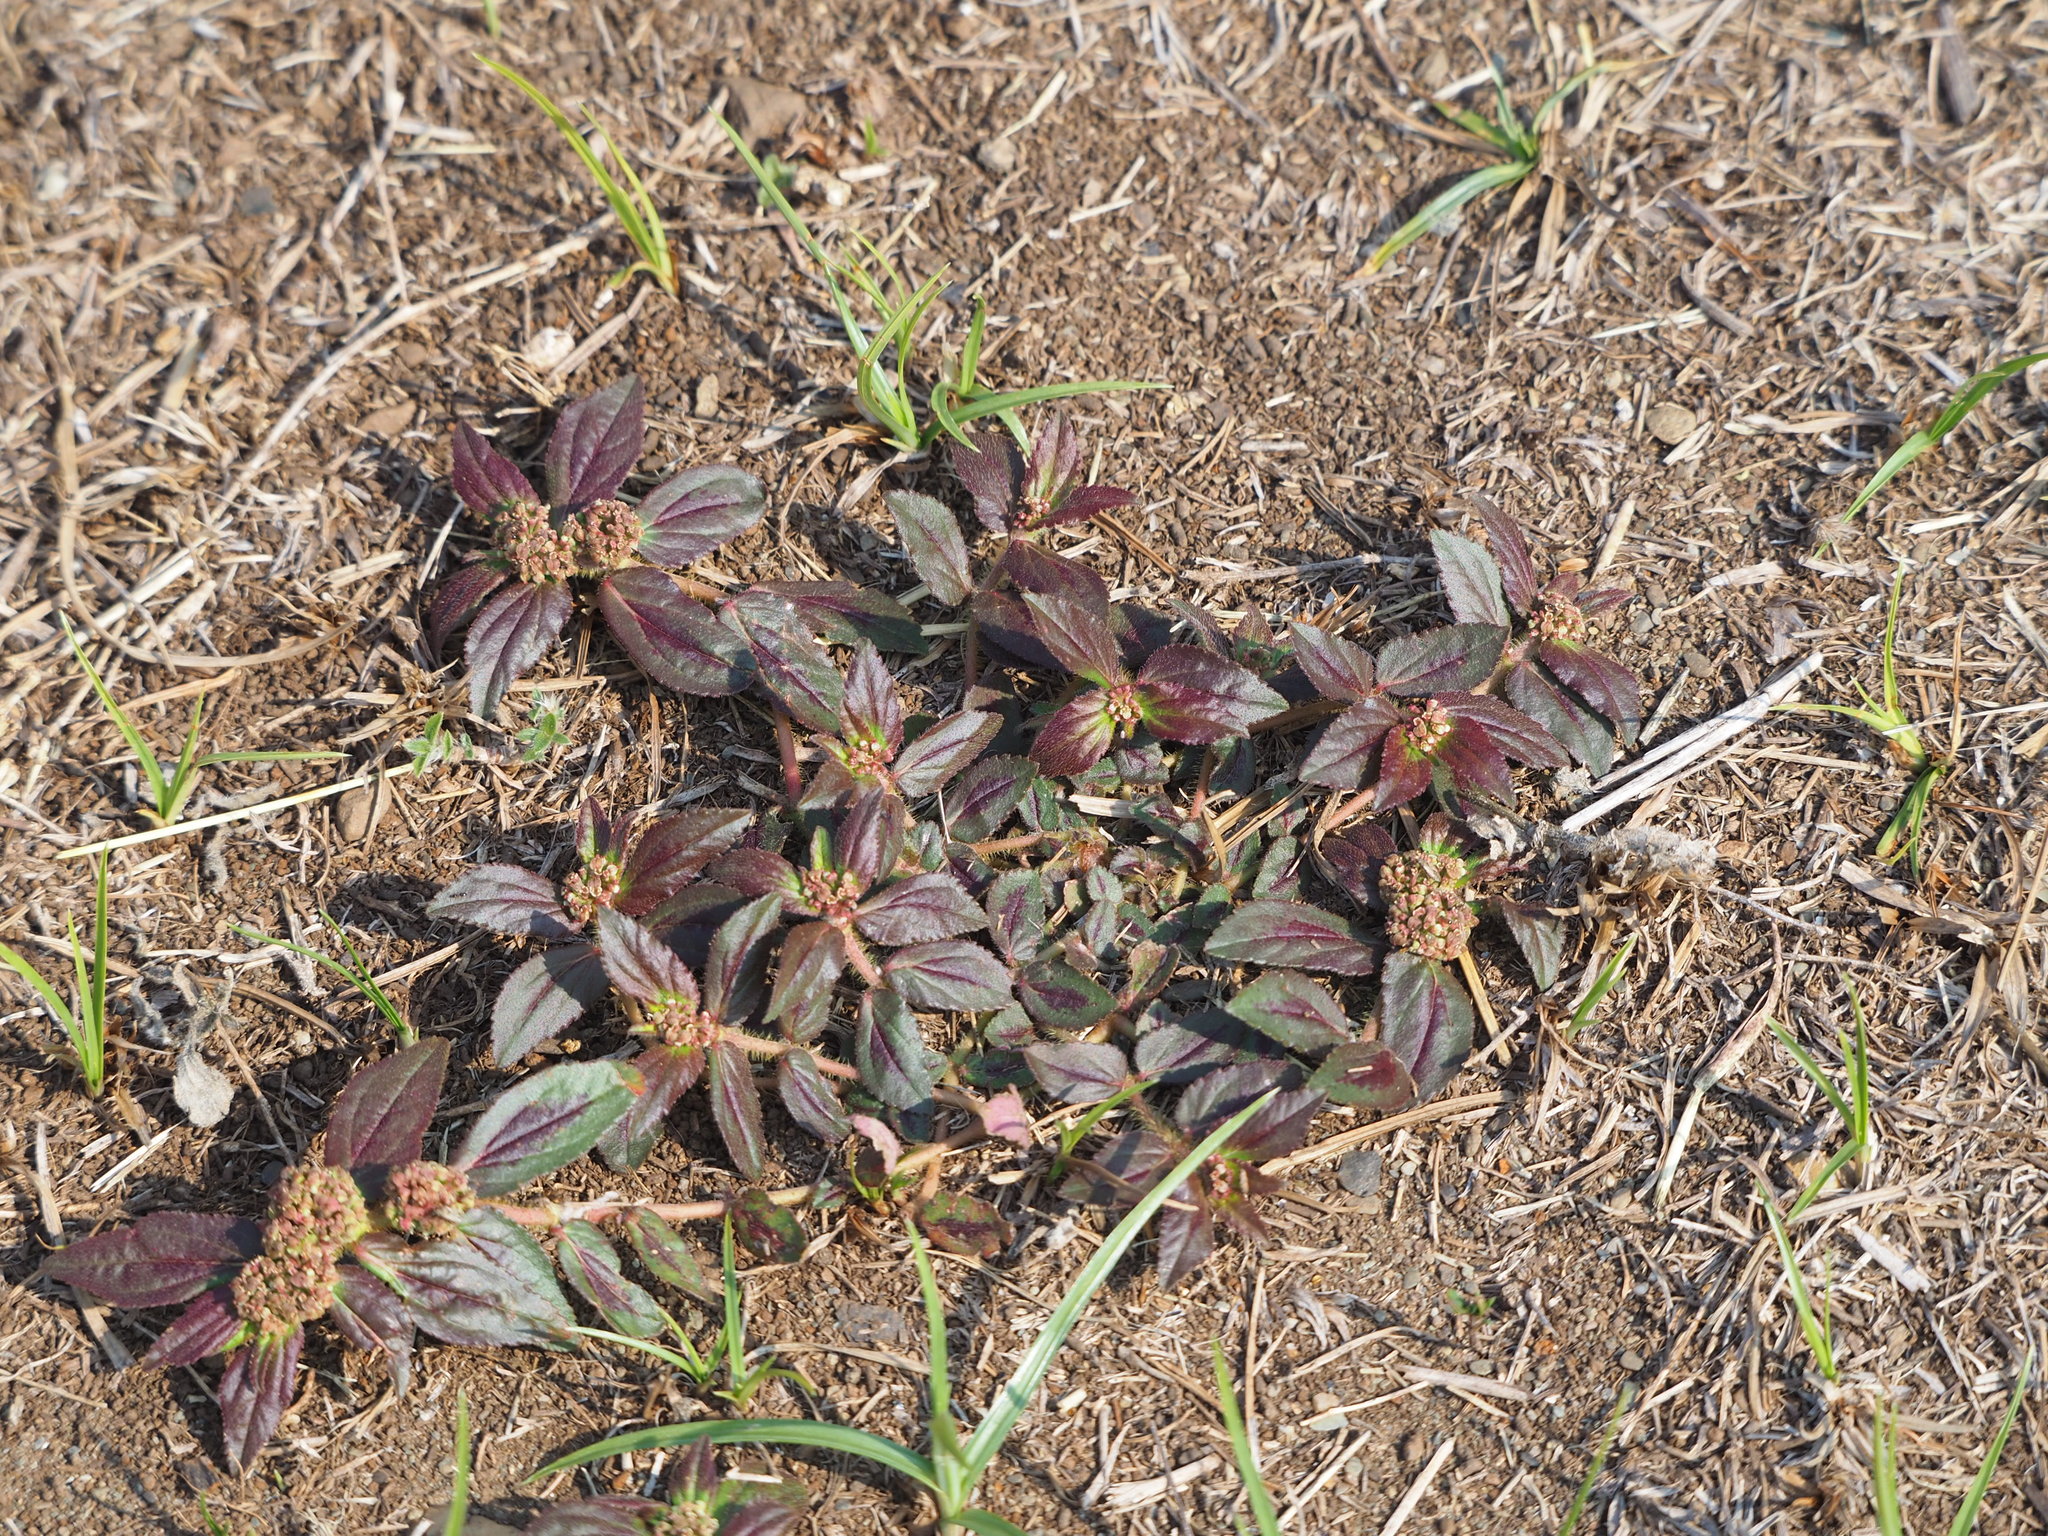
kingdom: Plantae
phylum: Tracheophyta
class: Magnoliopsida
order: Malpighiales
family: Euphorbiaceae
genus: Euphorbia
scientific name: Euphorbia hirta
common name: Pillpod sandmat
